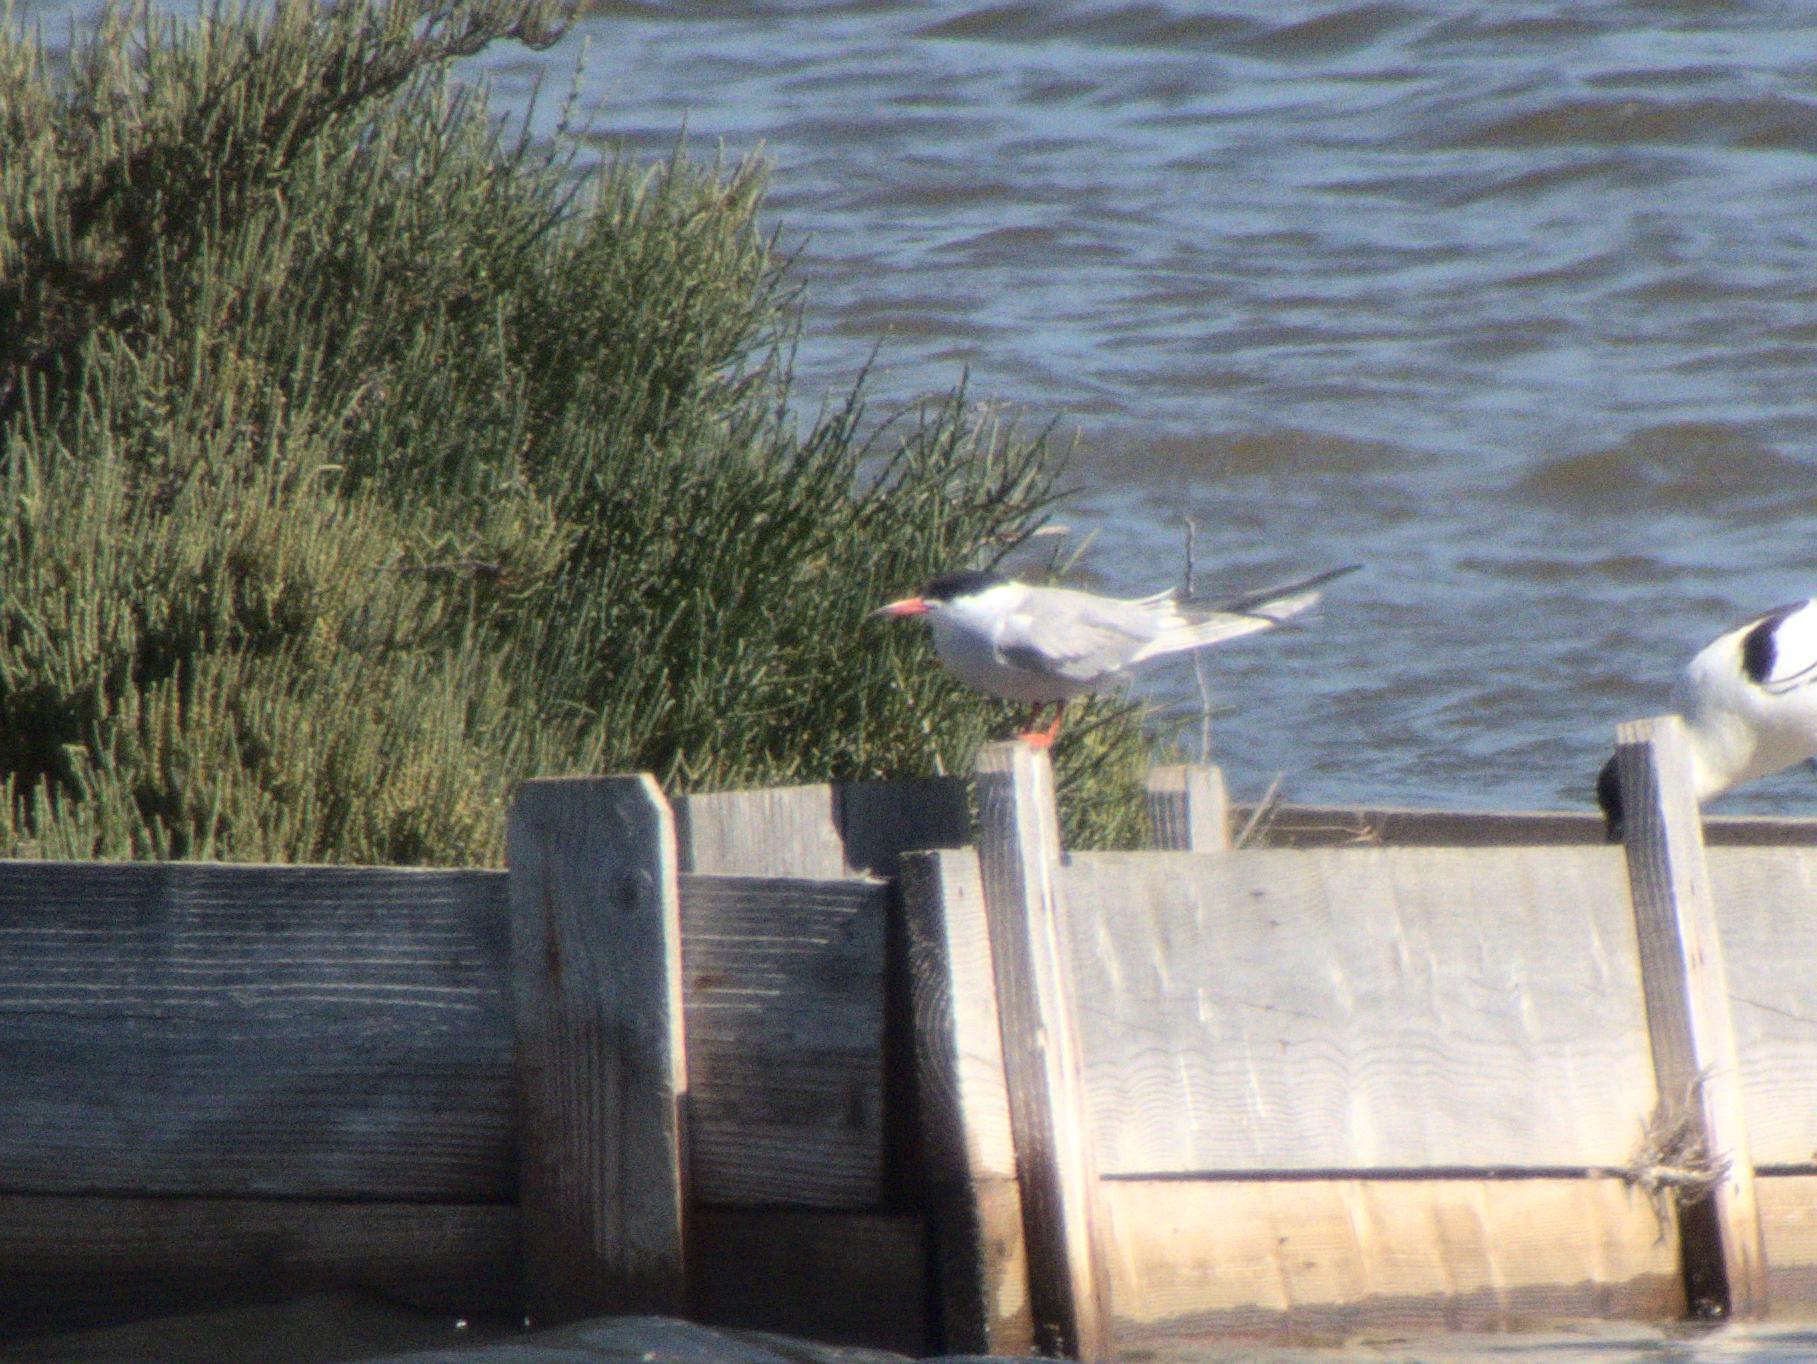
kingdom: Animalia
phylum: Chordata
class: Aves
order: Charadriiformes
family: Laridae
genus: Sterna
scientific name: Sterna hirundo
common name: Common tern
